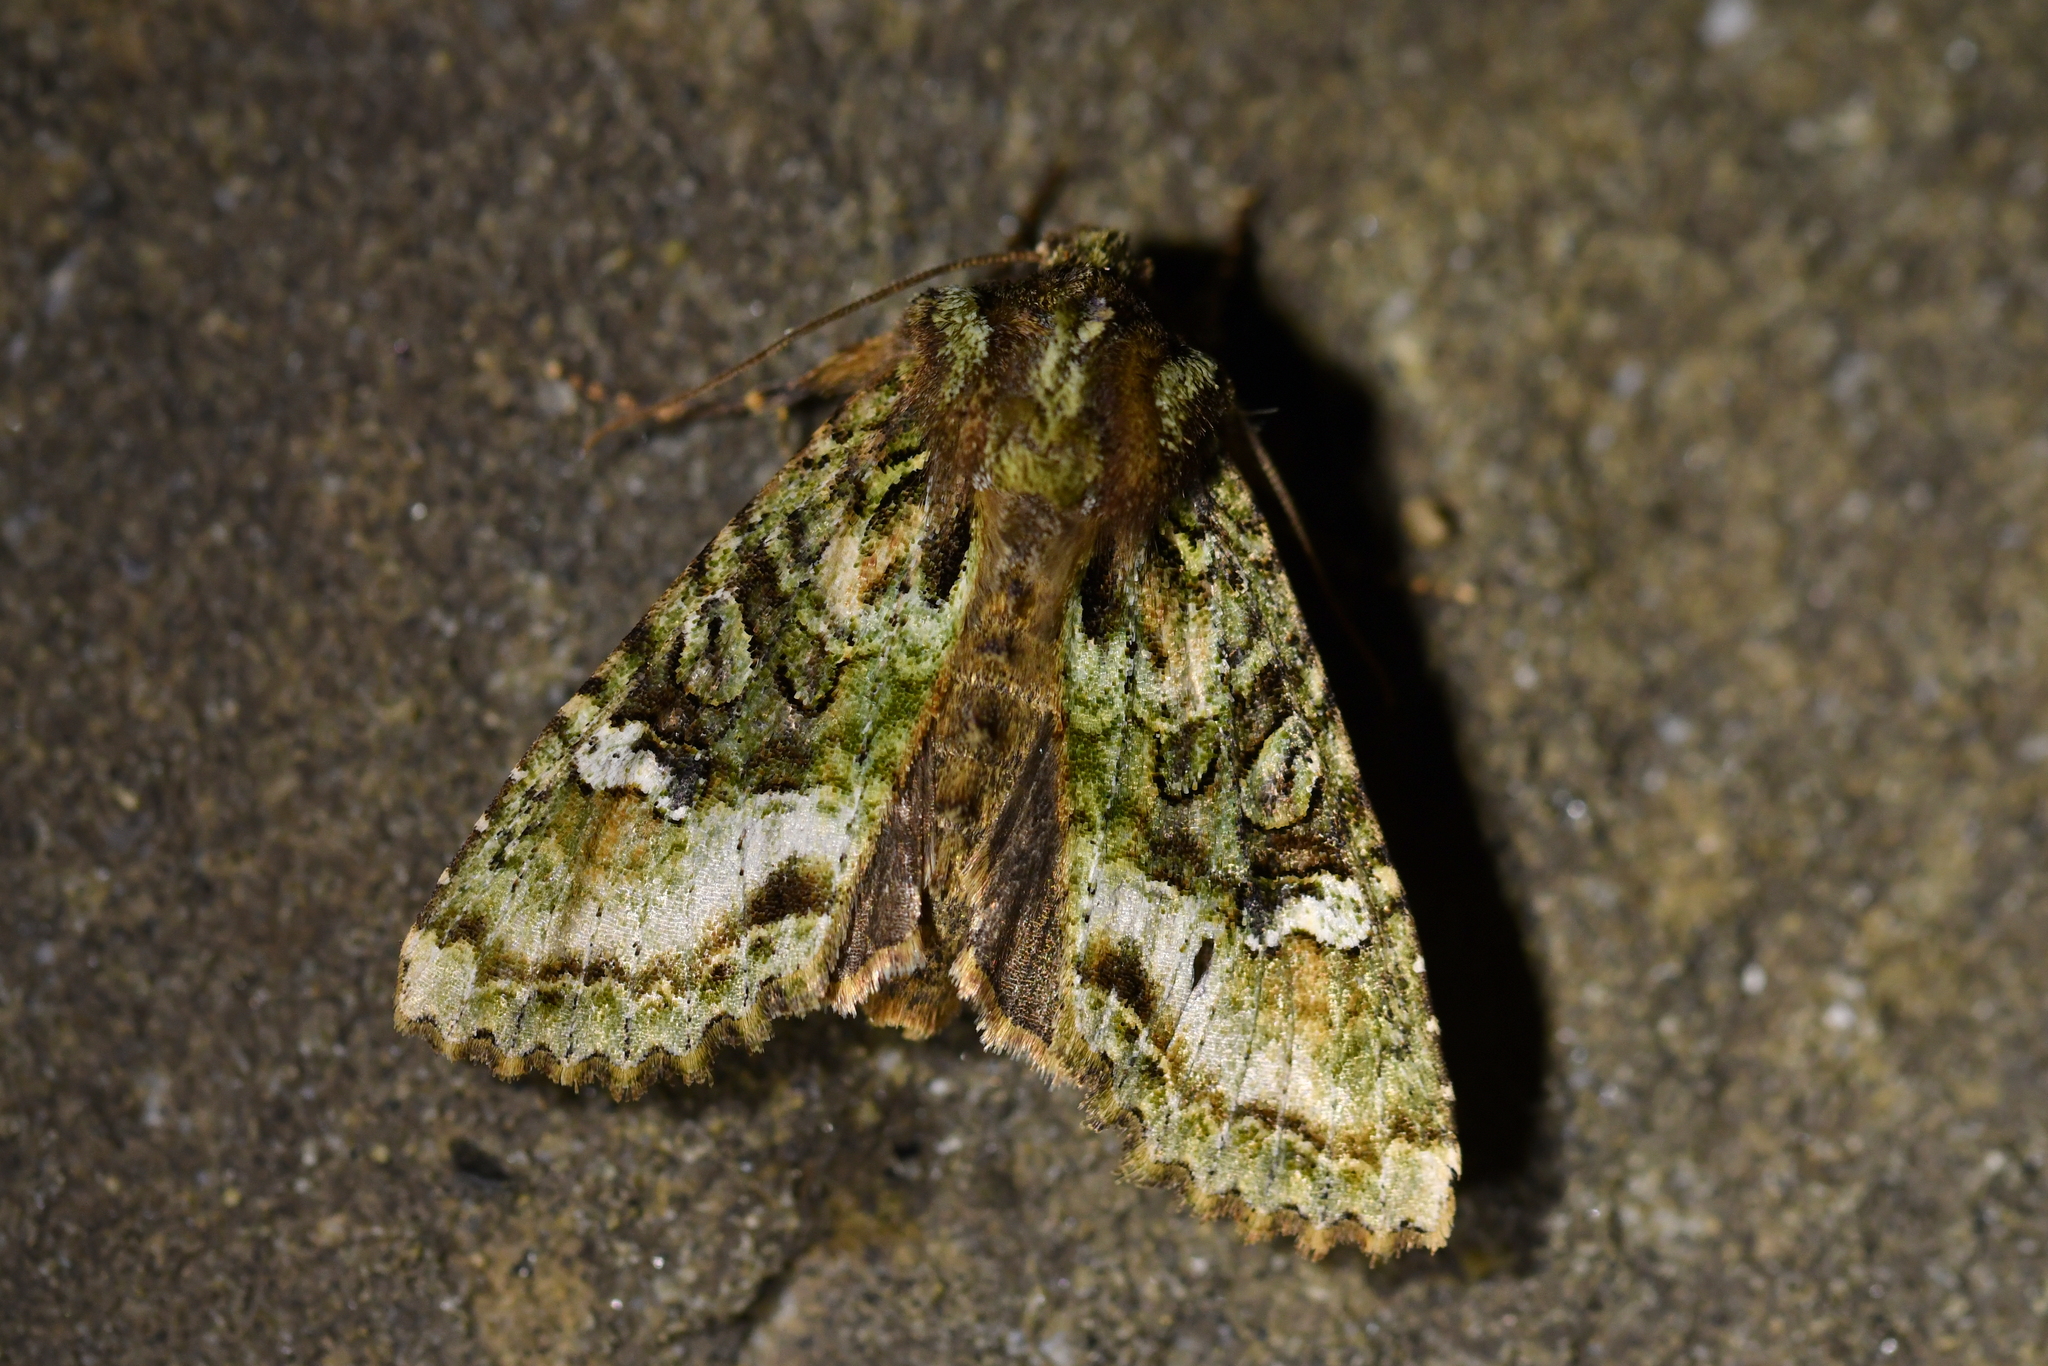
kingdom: Animalia
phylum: Arthropoda
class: Insecta
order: Lepidoptera
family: Noctuidae
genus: Meterana
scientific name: Meterana
